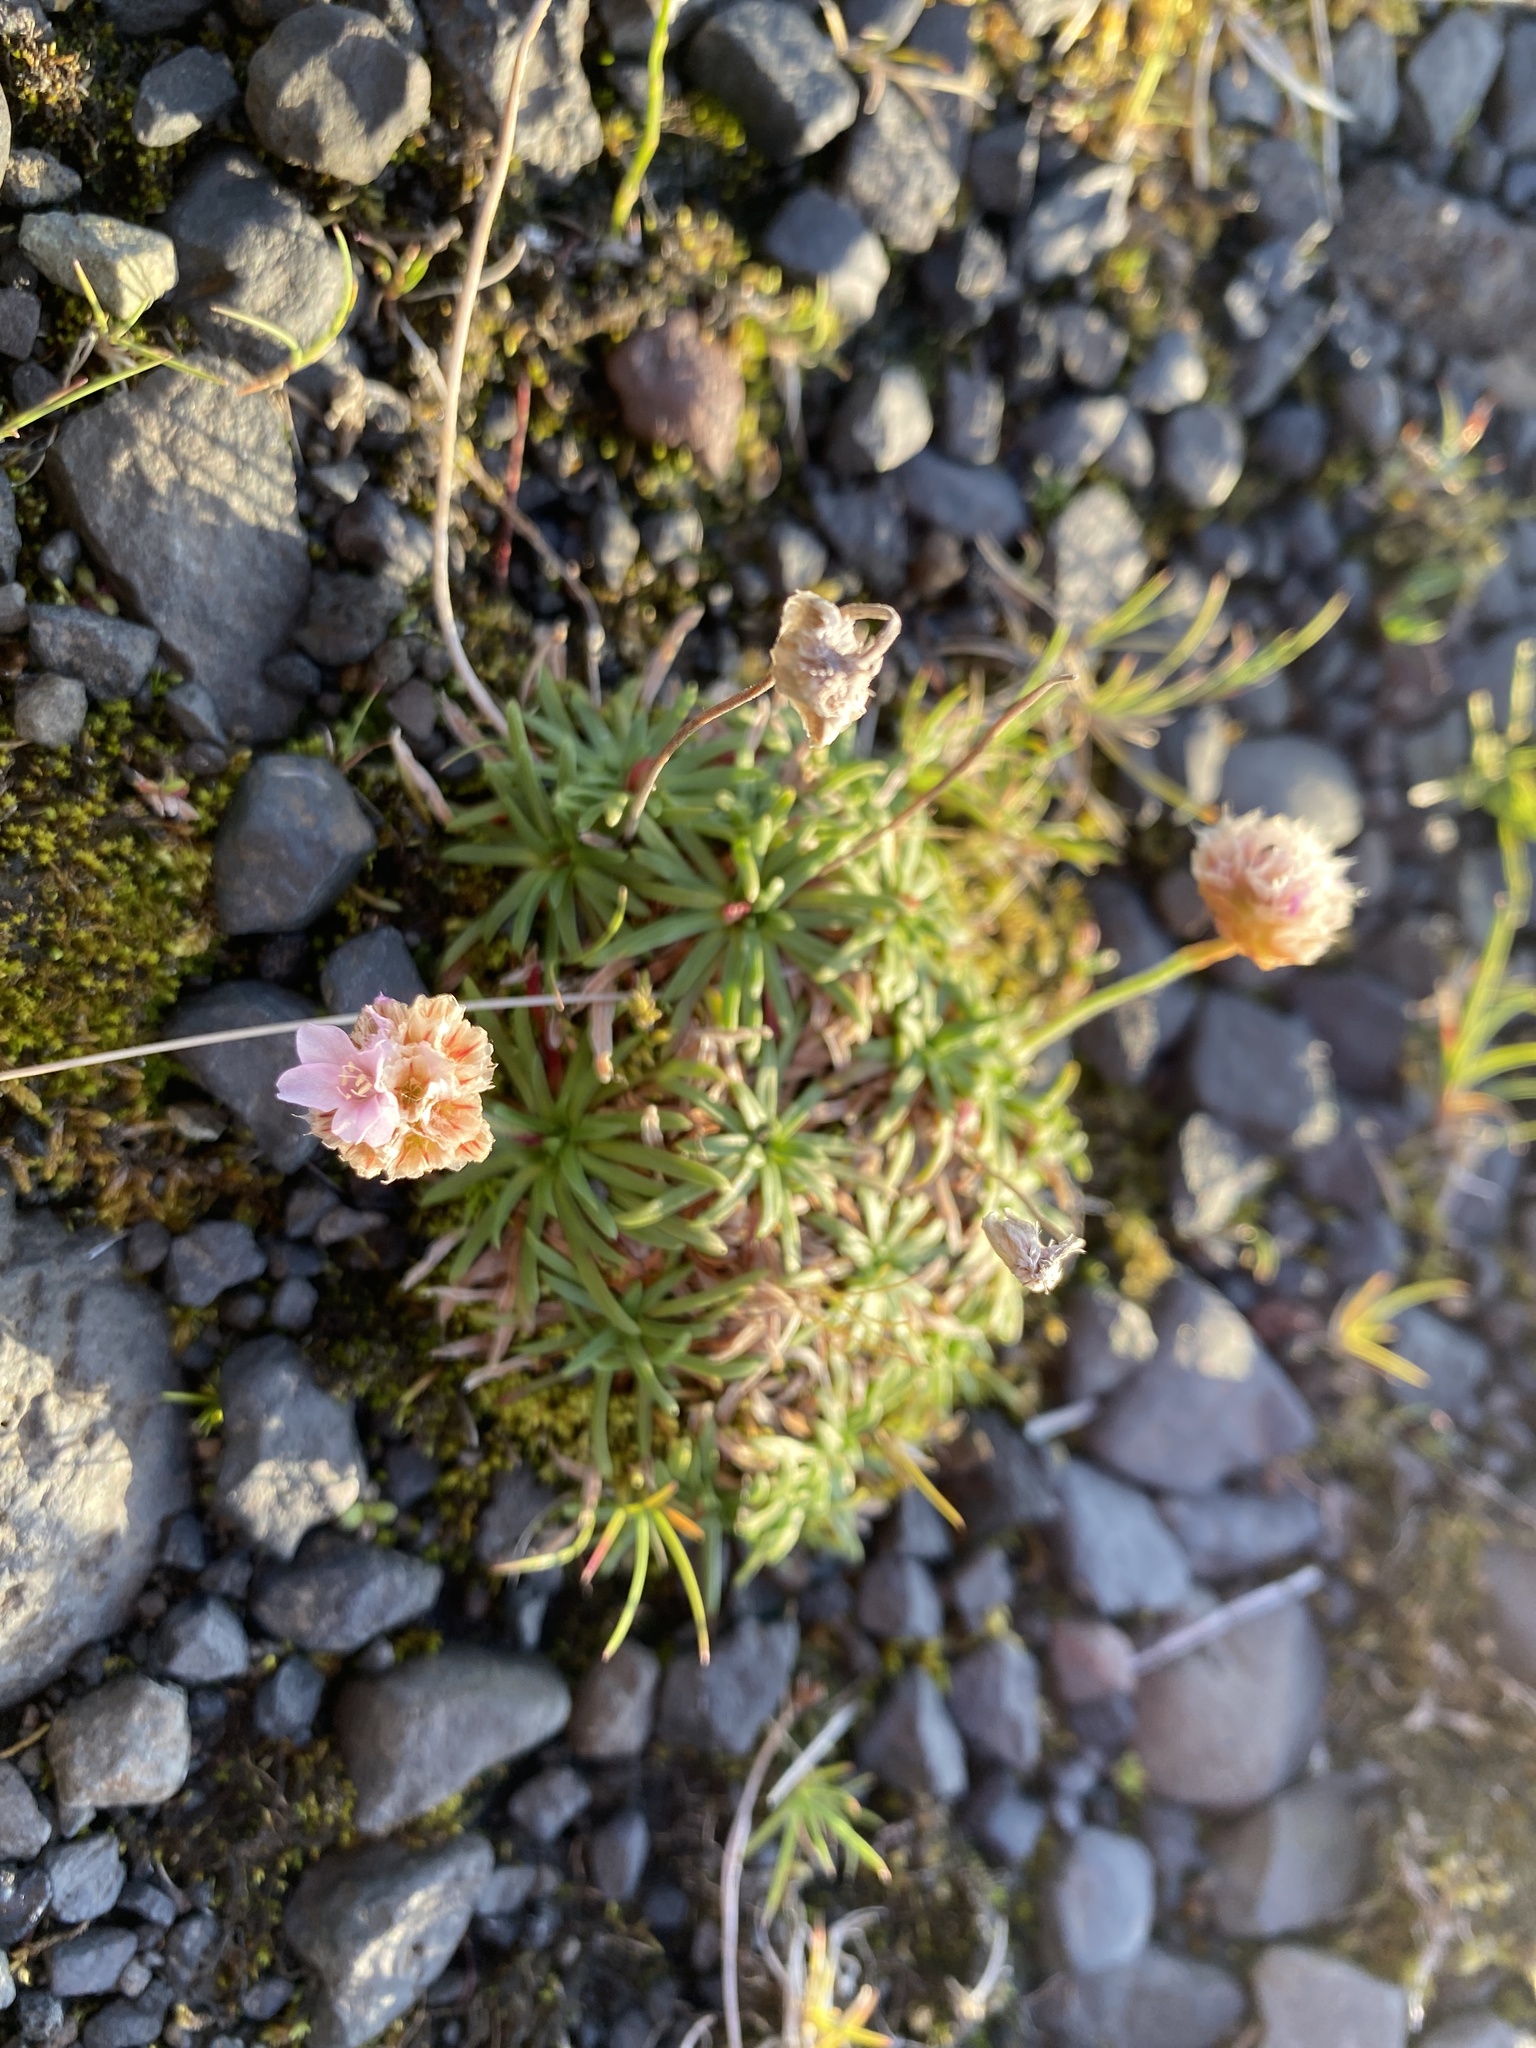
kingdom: Plantae
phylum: Tracheophyta
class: Magnoliopsida
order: Caryophyllales
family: Plumbaginaceae
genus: Armeria
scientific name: Armeria maritima
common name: Thrift
